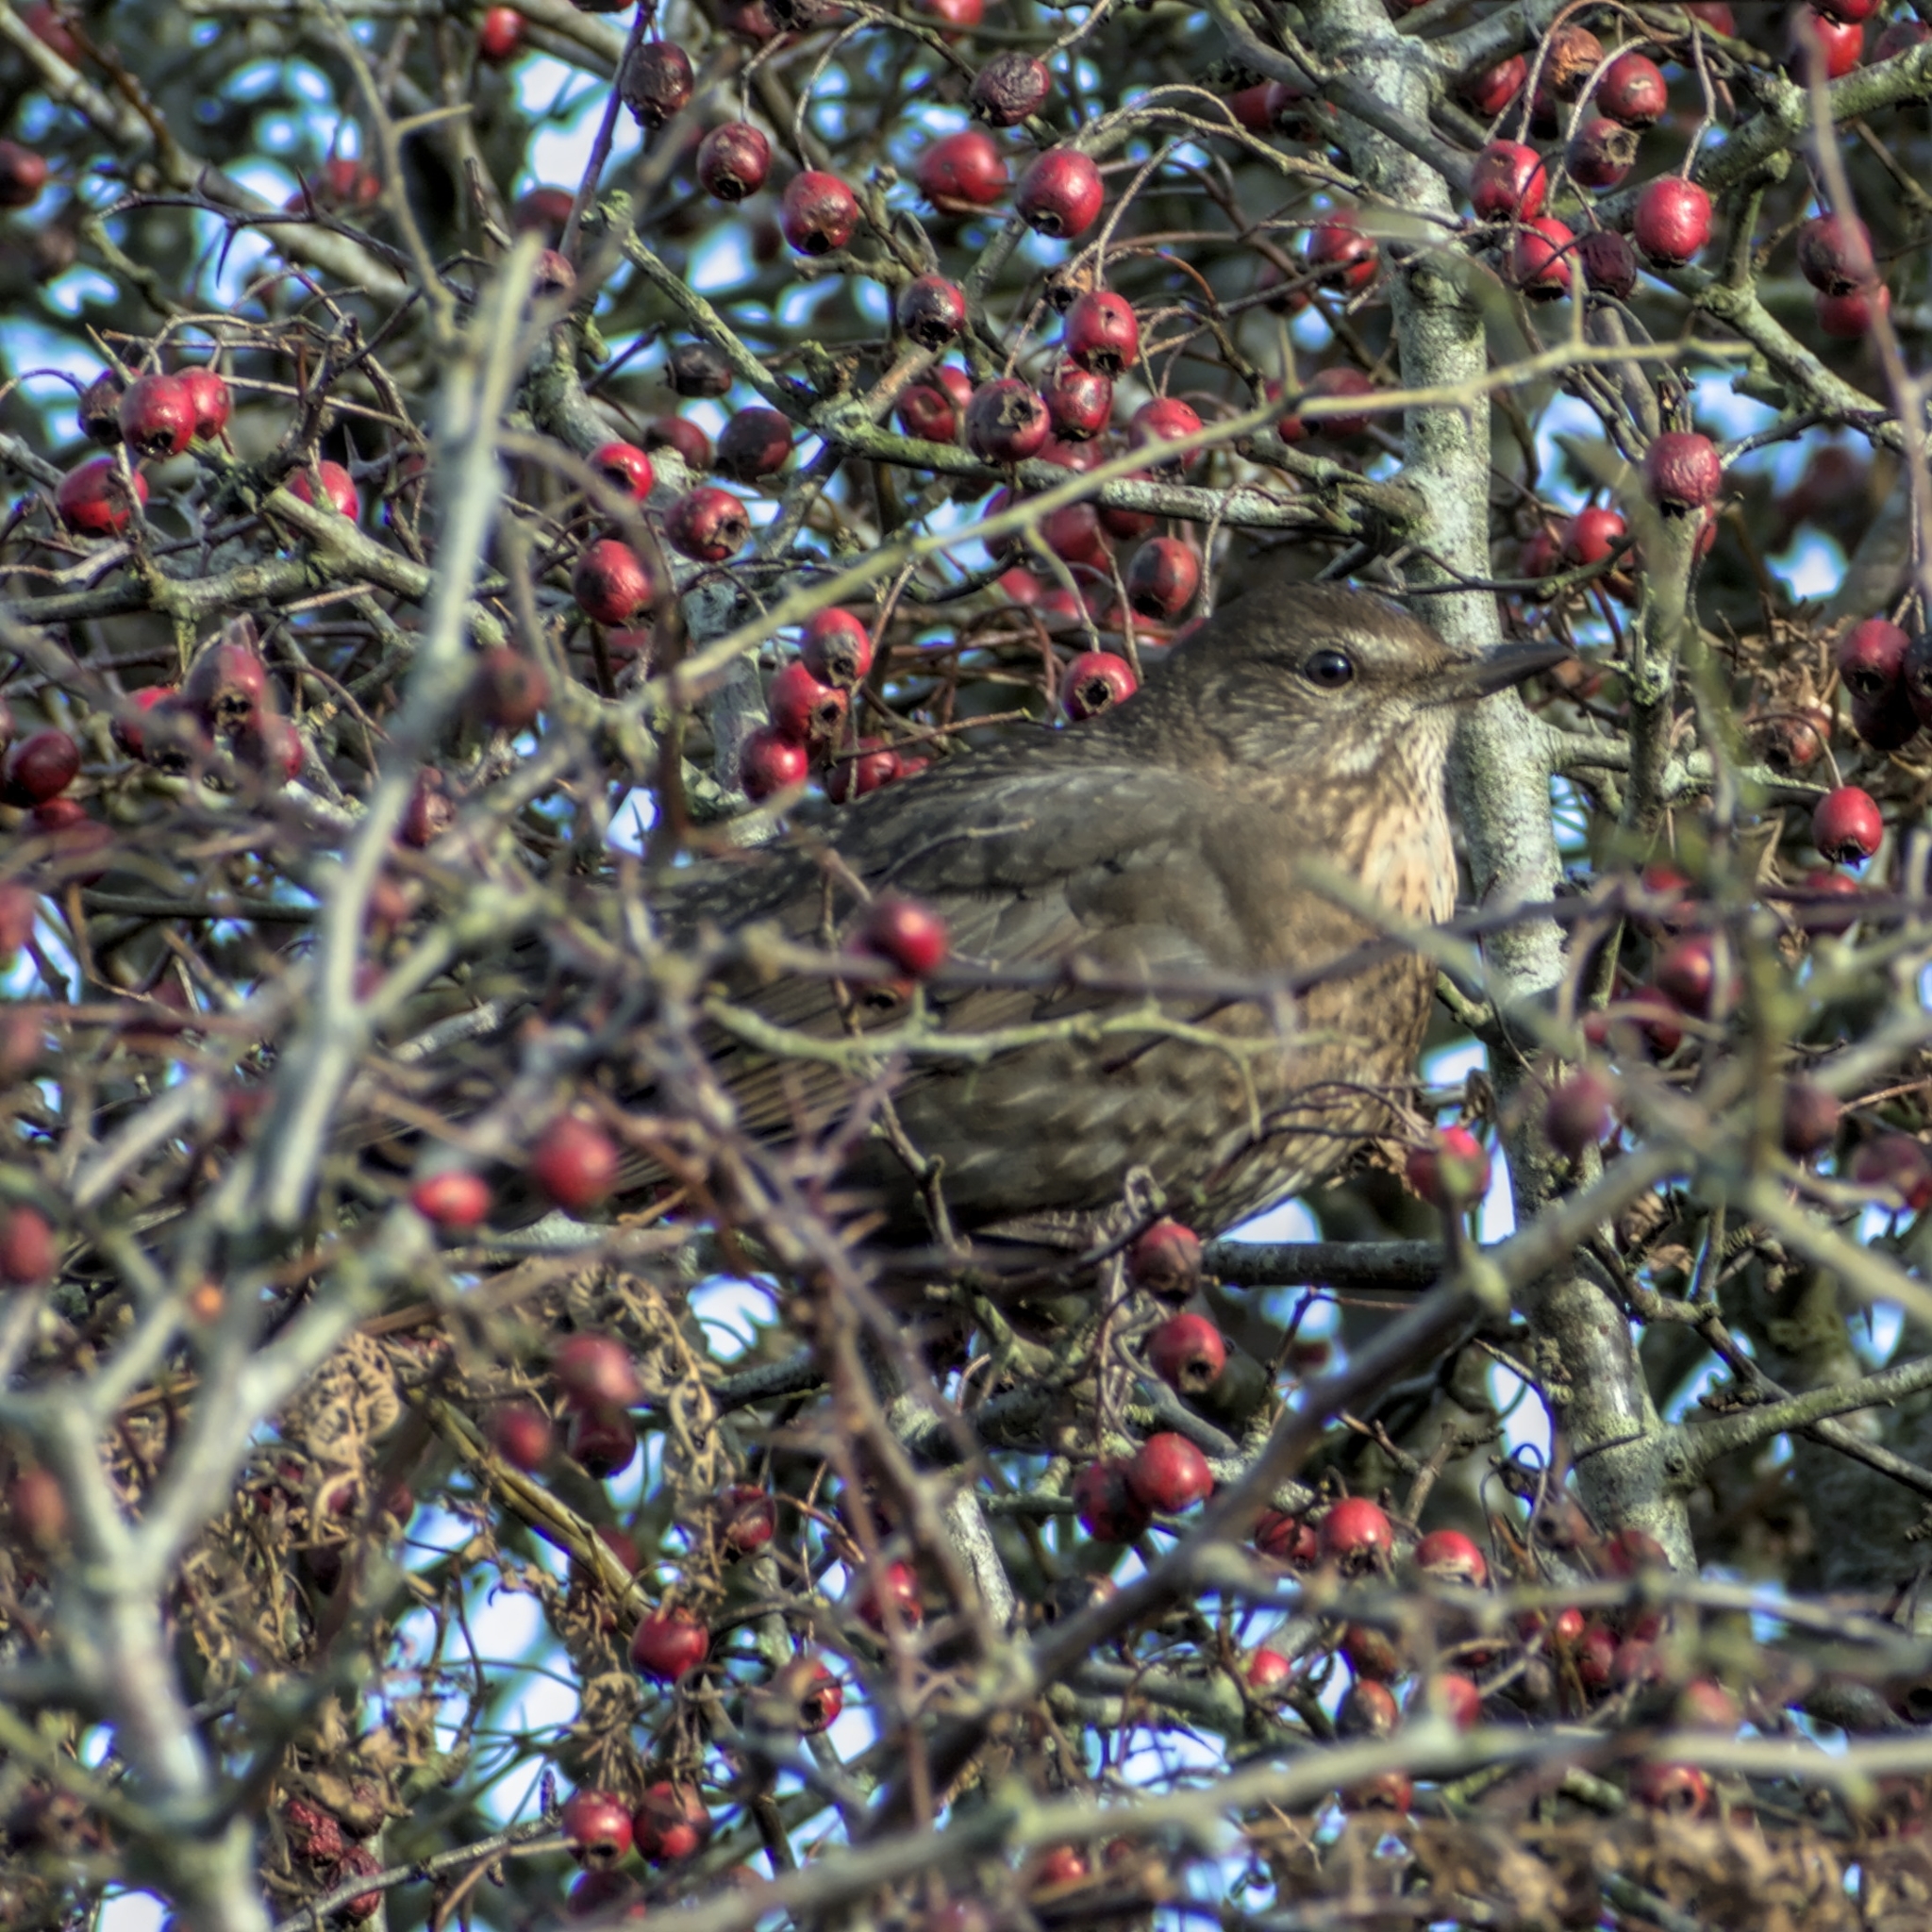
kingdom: Animalia
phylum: Chordata
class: Aves
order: Passeriformes
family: Turdidae
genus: Turdus
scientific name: Turdus merula
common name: Common blackbird
